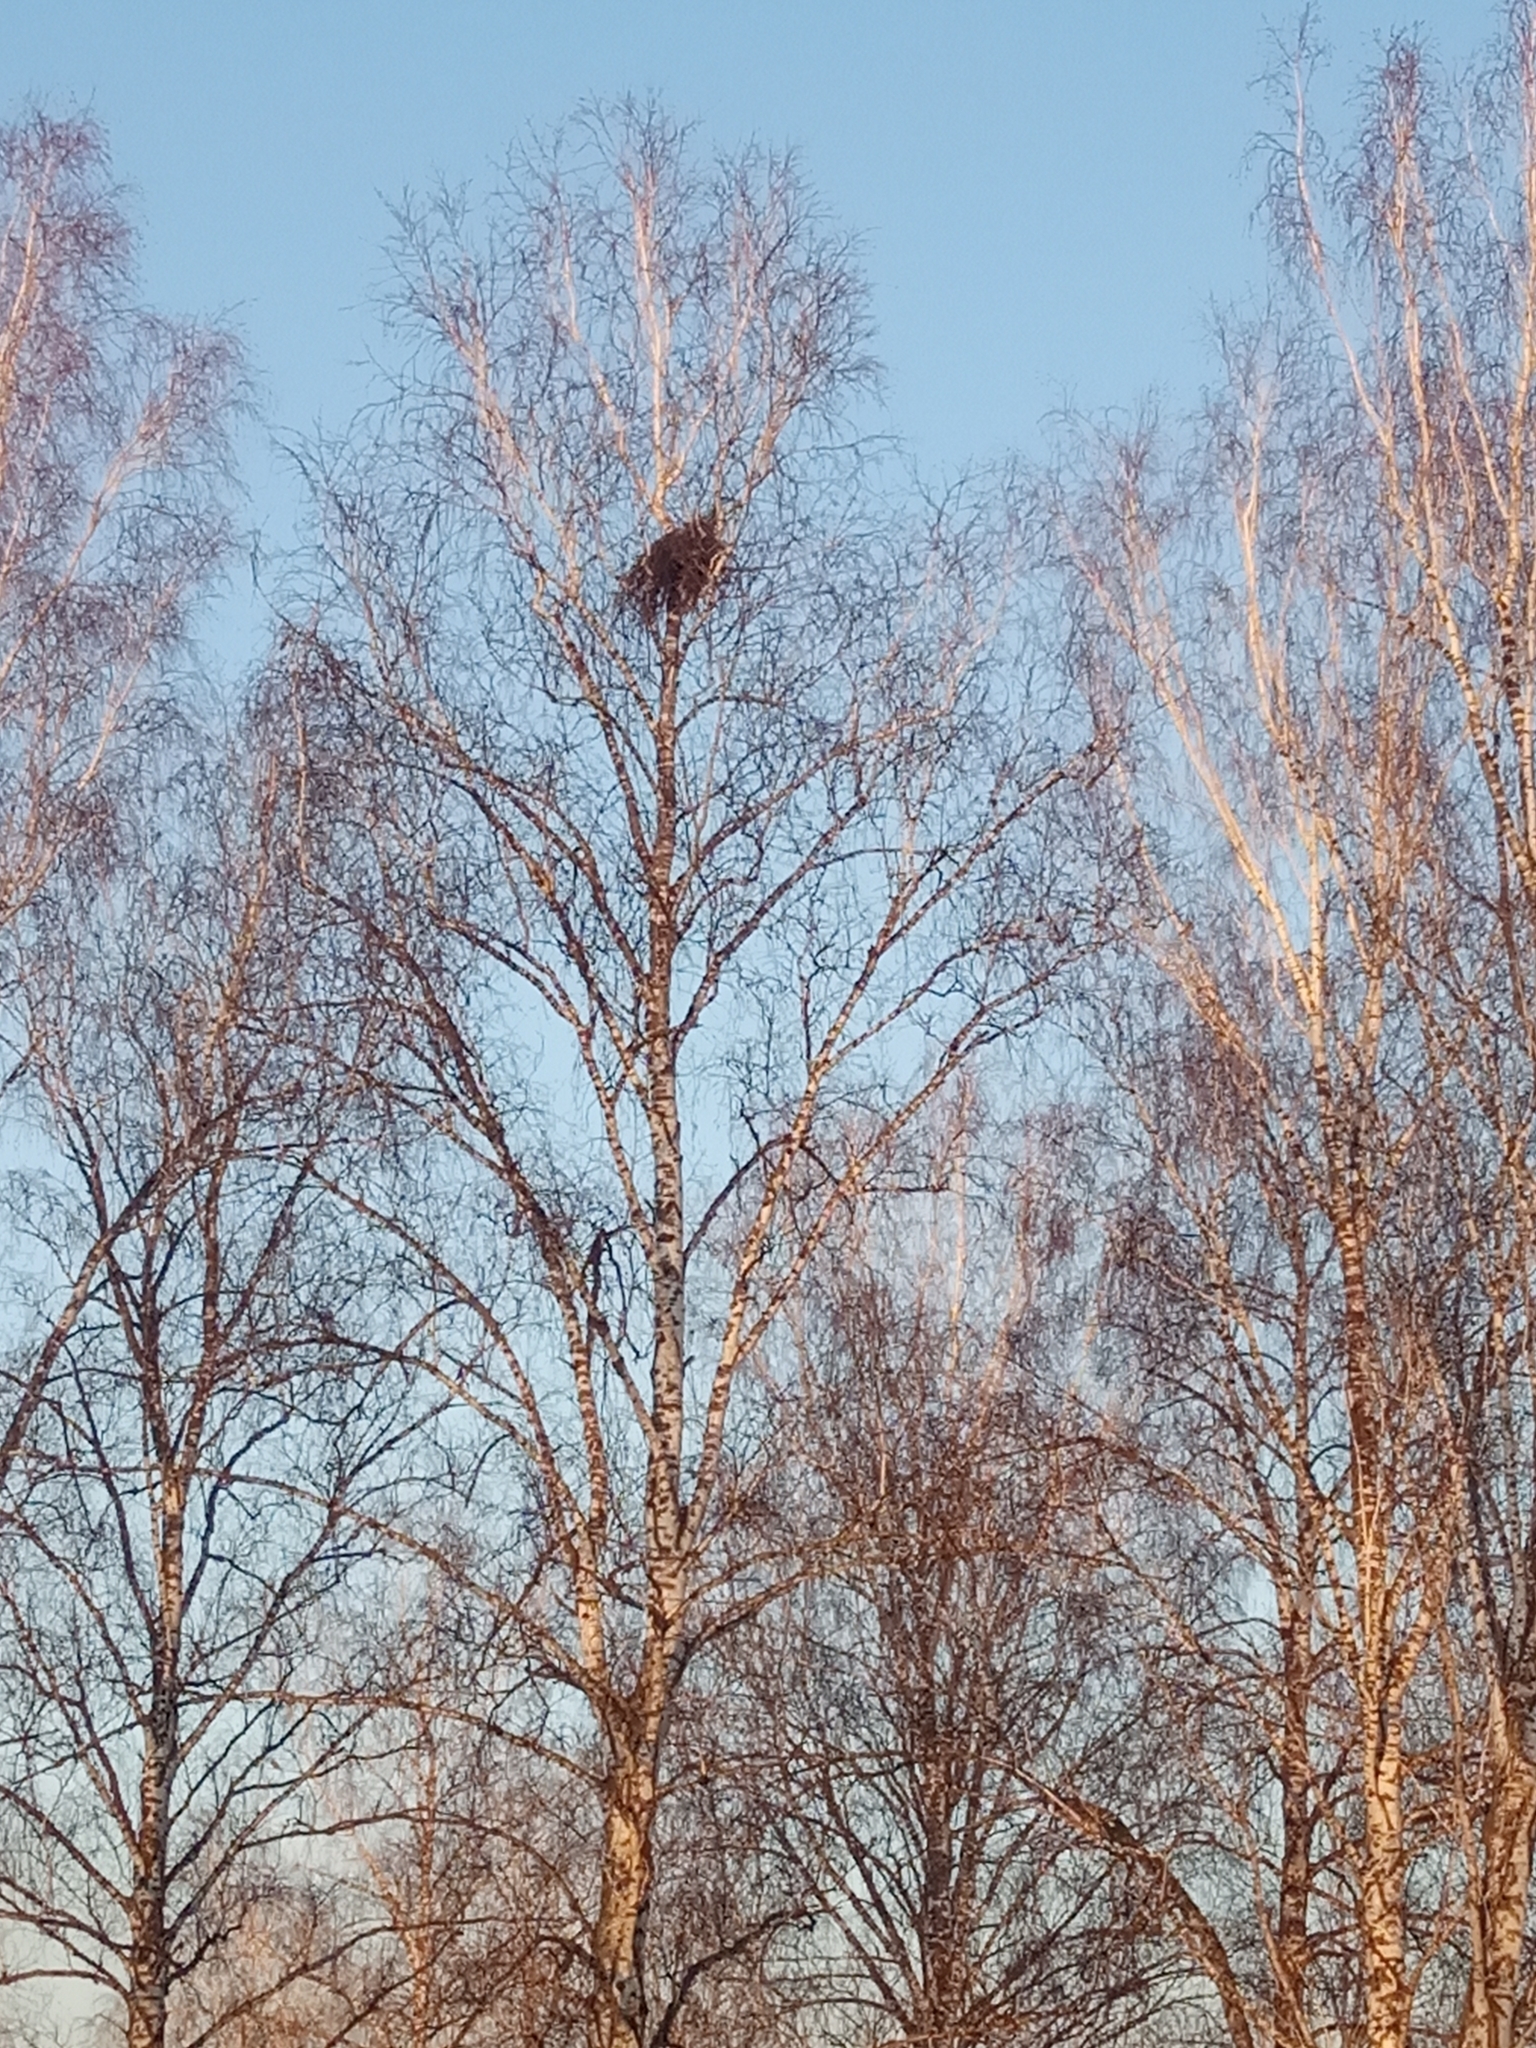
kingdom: Plantae
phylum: Tracheophyta
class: Magnoliopsida
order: Fagales
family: Betulaceae
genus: Betula
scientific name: Betula pendula
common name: Silver birch
